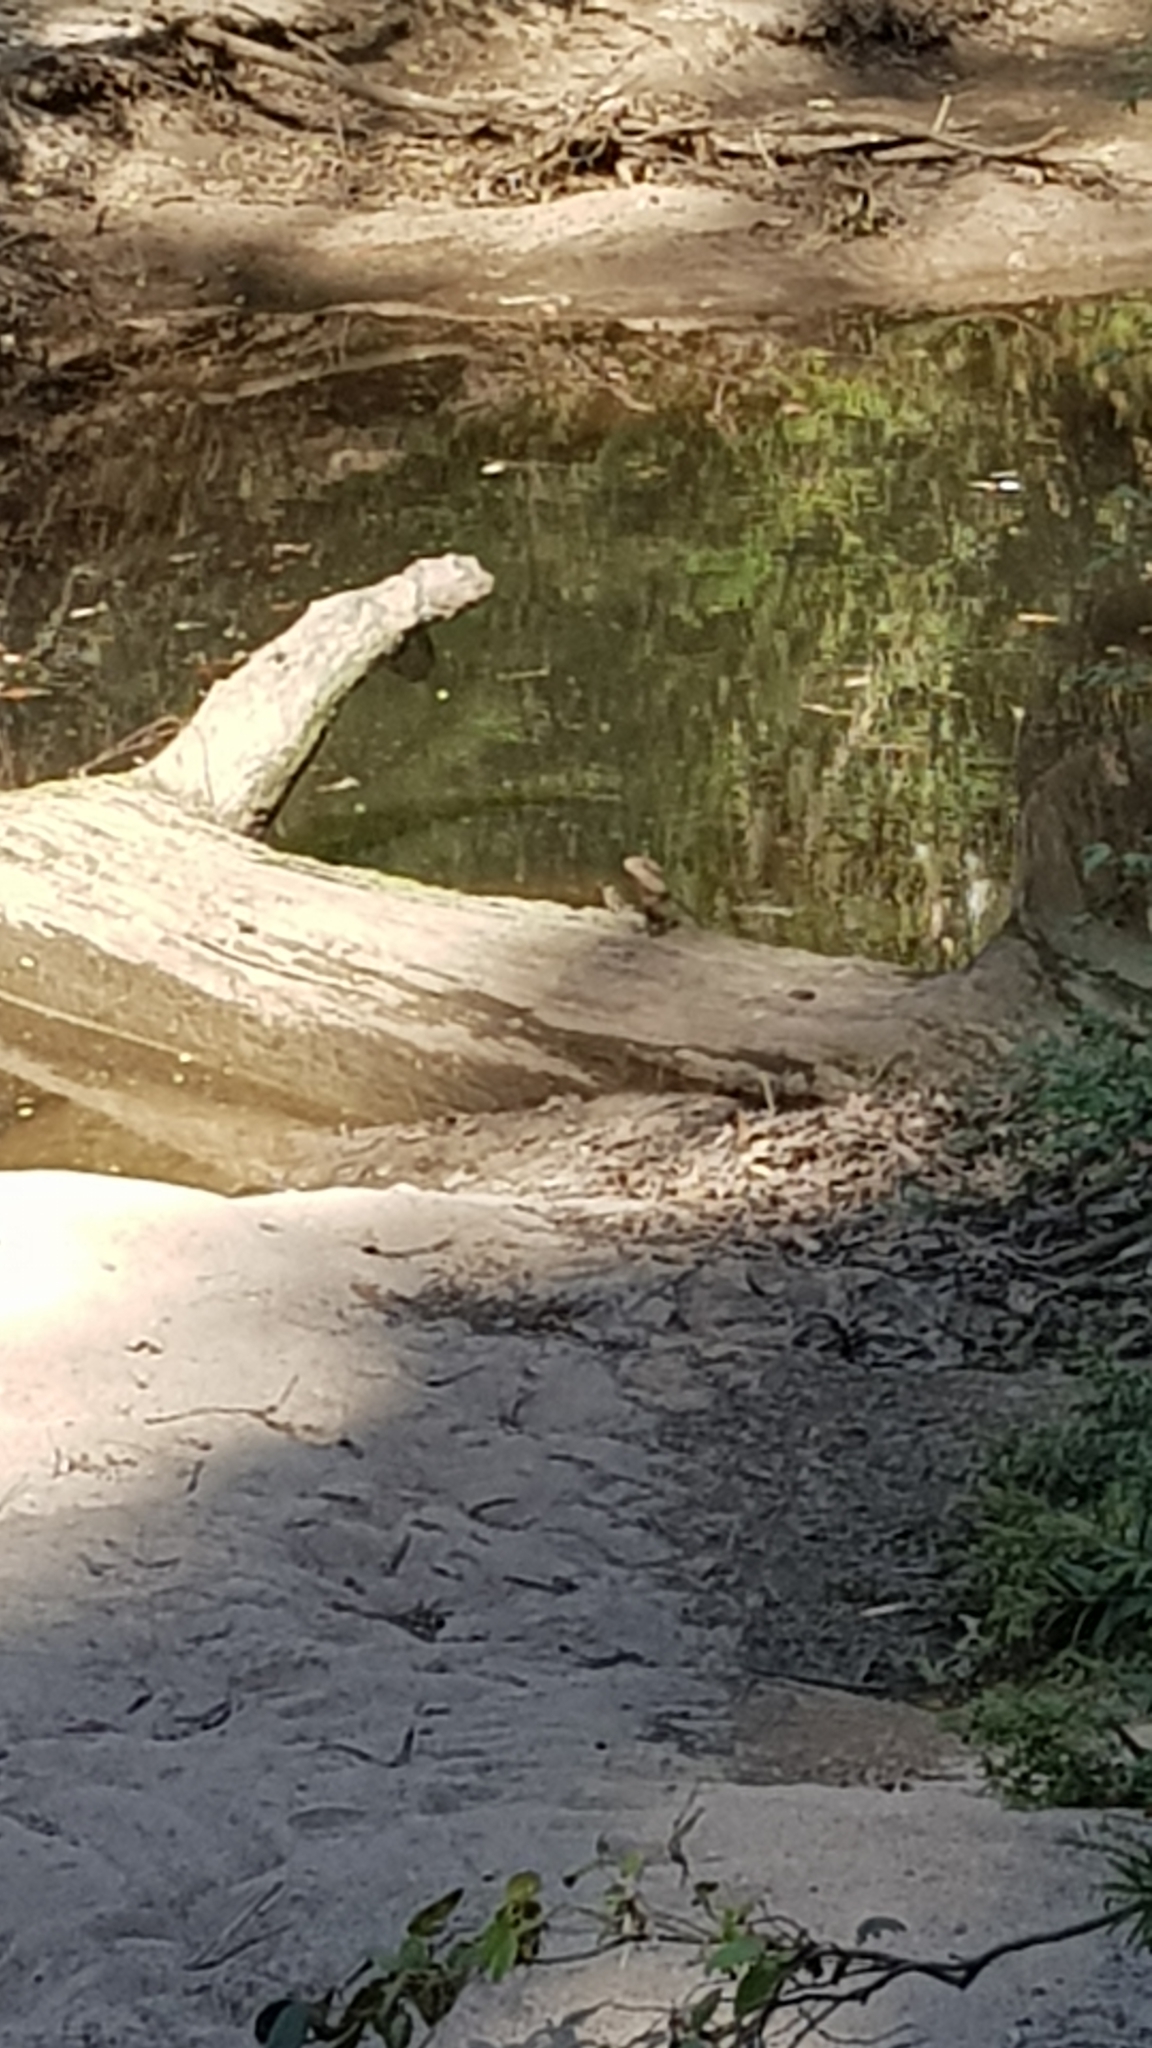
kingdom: Animalia
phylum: Chordata
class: Squamata
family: Agamidae
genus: Intellagama
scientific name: Intellagama lesueurii
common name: Eastern water dragon
